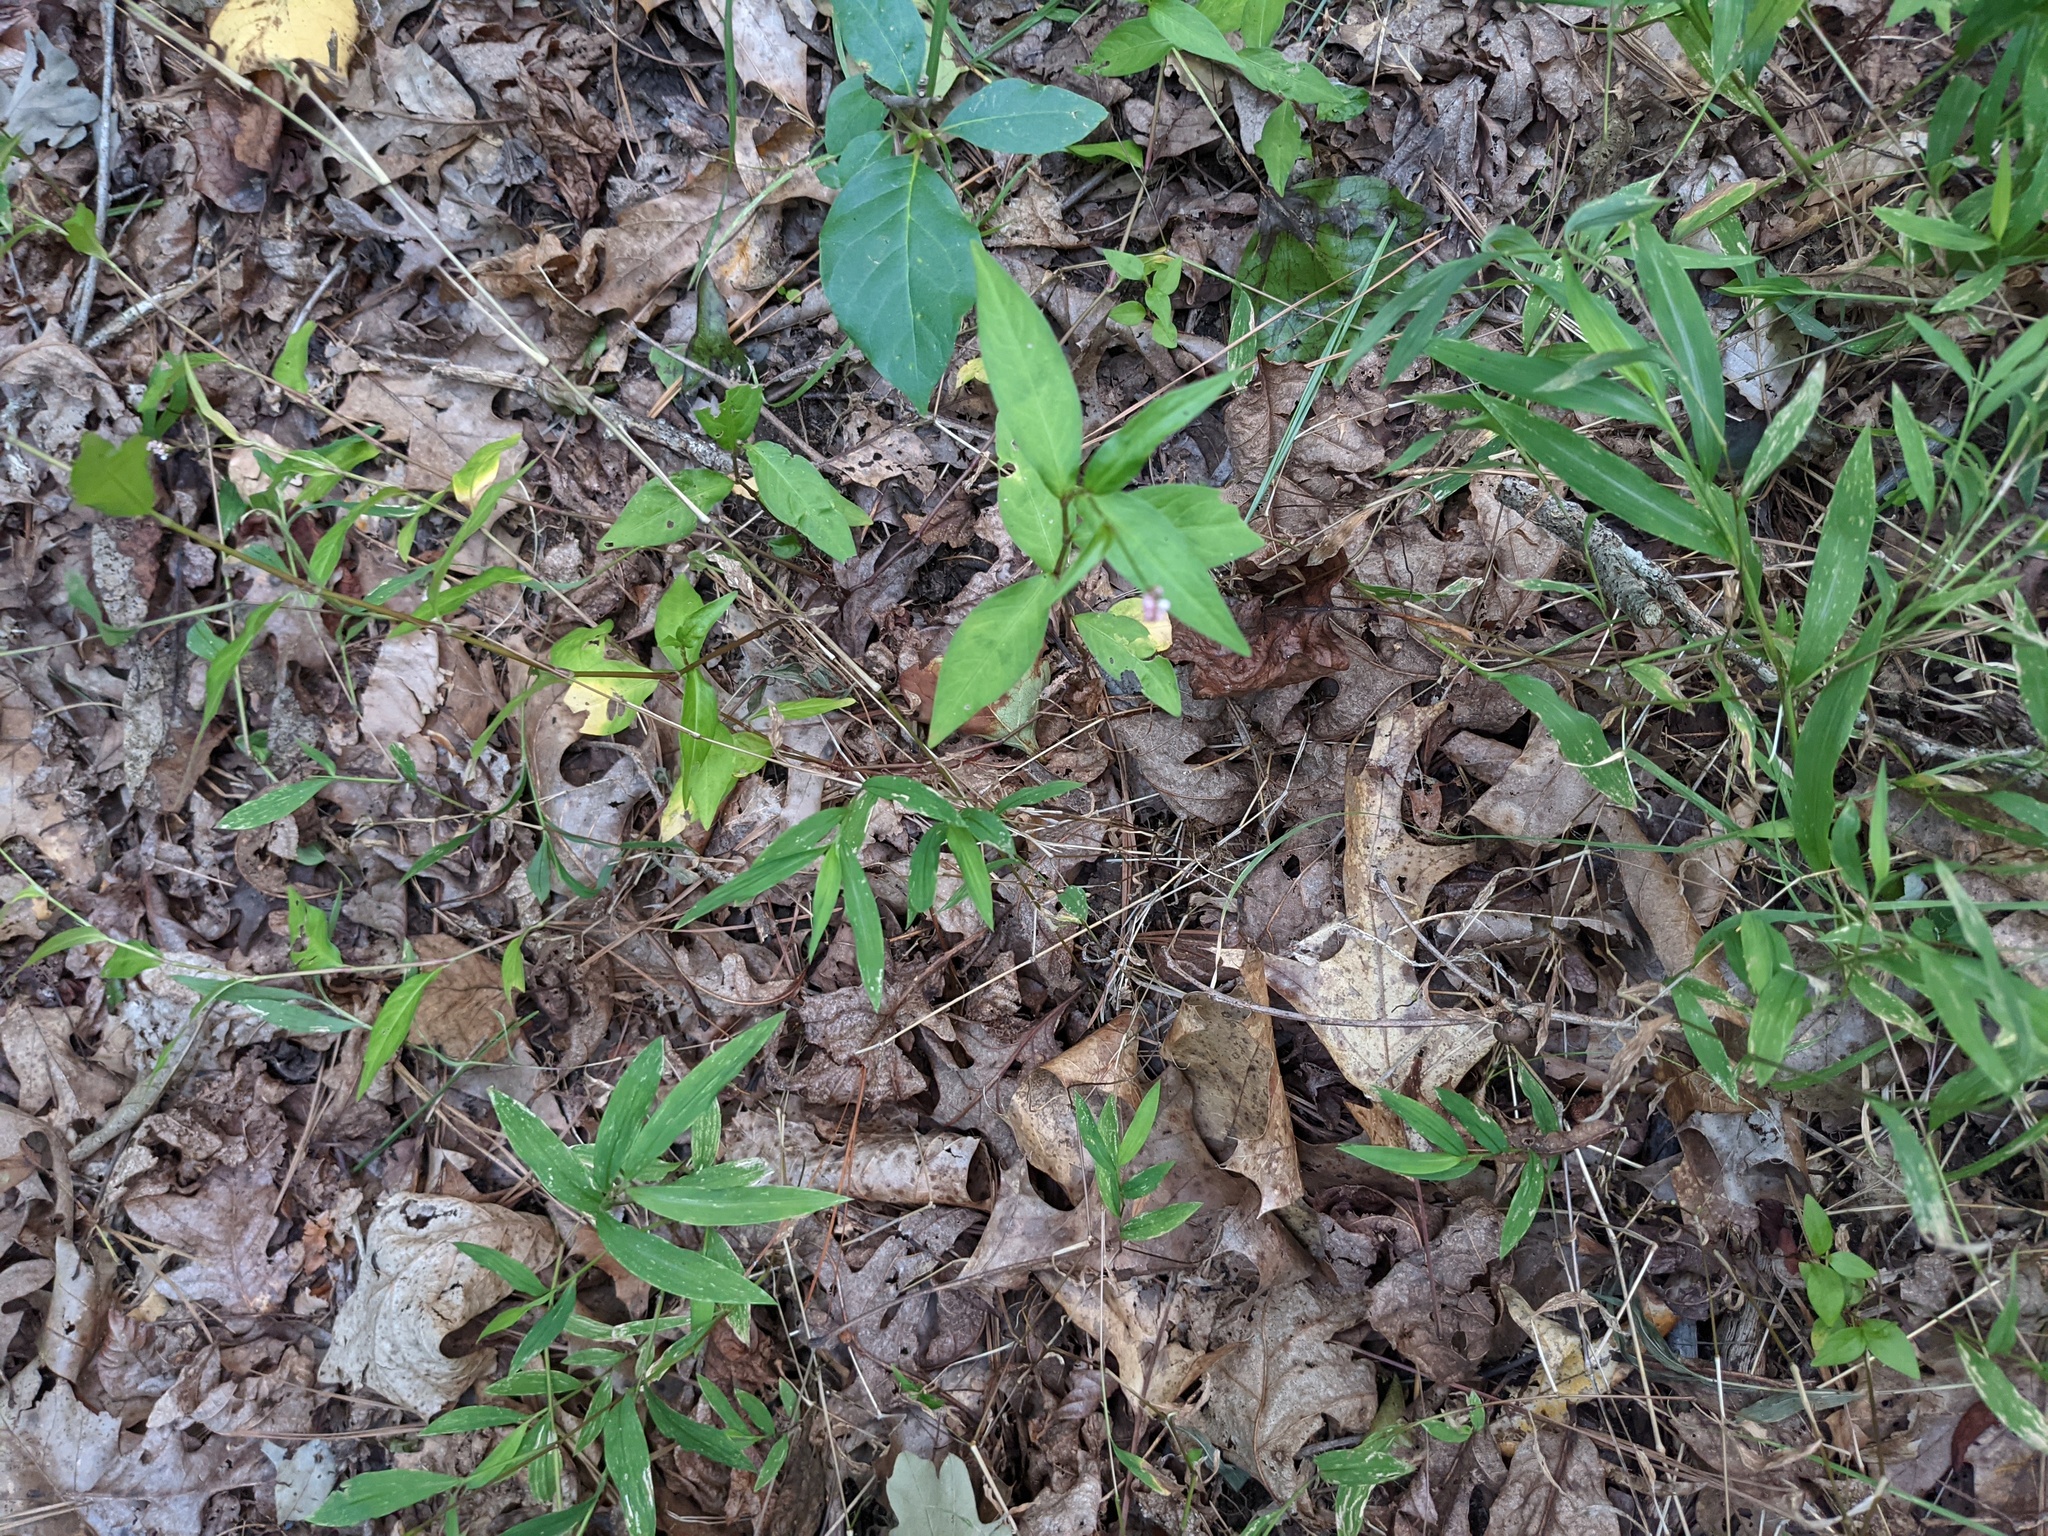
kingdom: Plantae
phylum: Tracheophyta
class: Liliopsida
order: Poales
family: Poaceae
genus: Microstegium
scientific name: Microstegium vimineum
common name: Japanese stiltgrass
